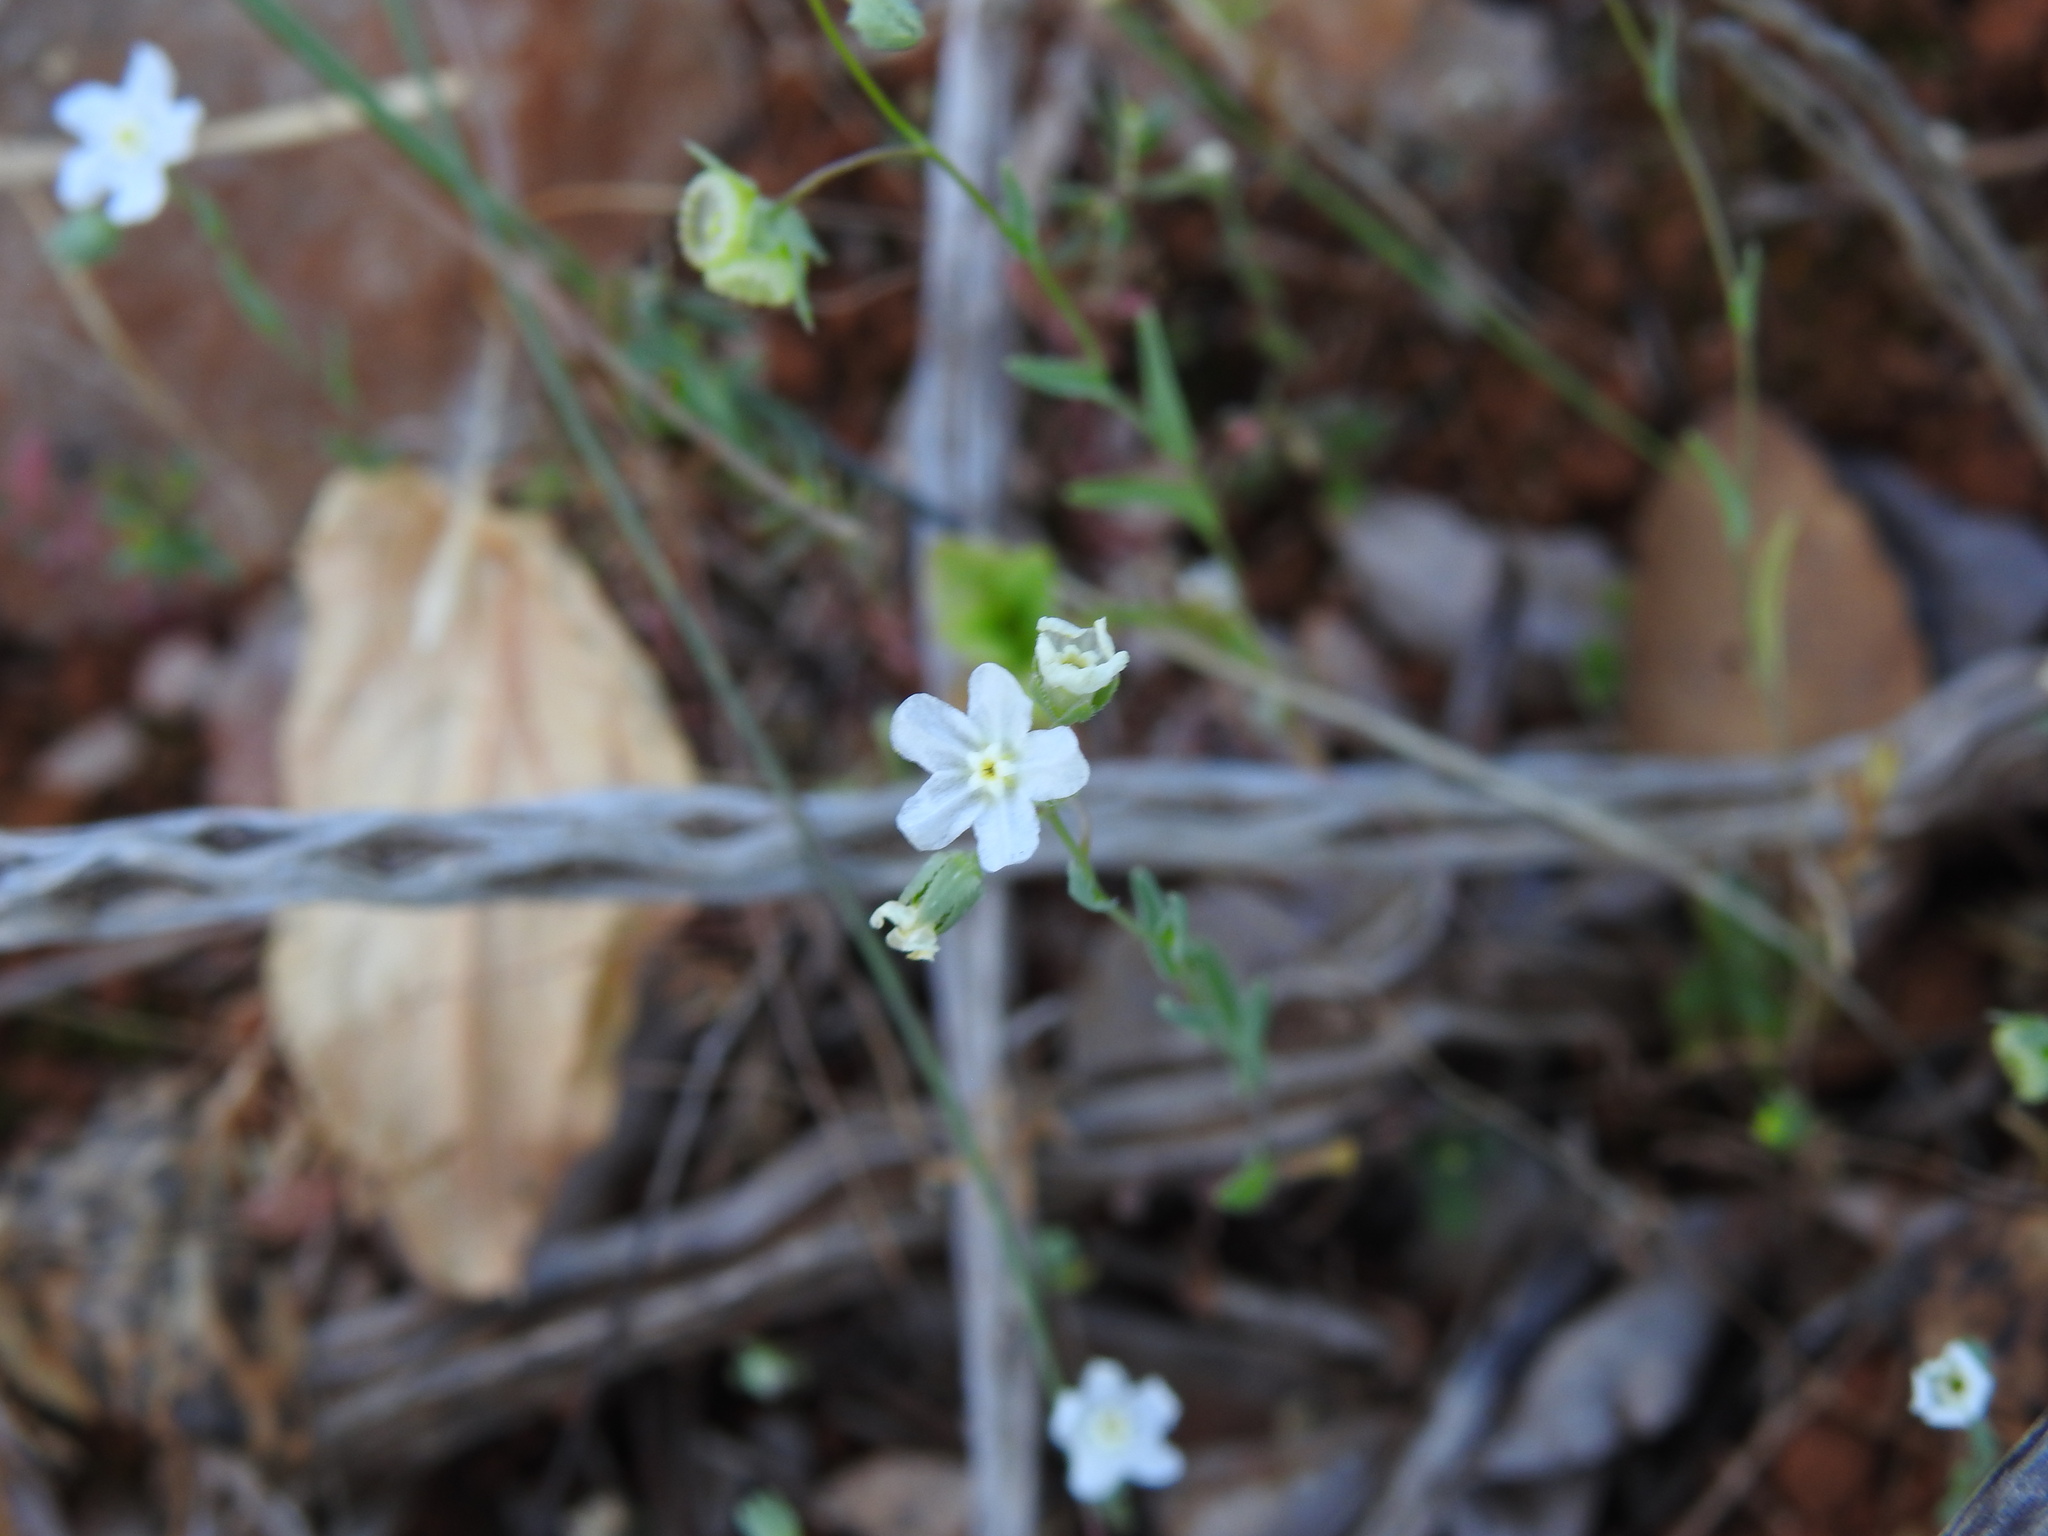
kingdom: Plantae
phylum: Tracheophyta
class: Magnoliopsida
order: Boraginales
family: Boraginaceae
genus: Iberodes
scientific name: Iberodes linifolia
